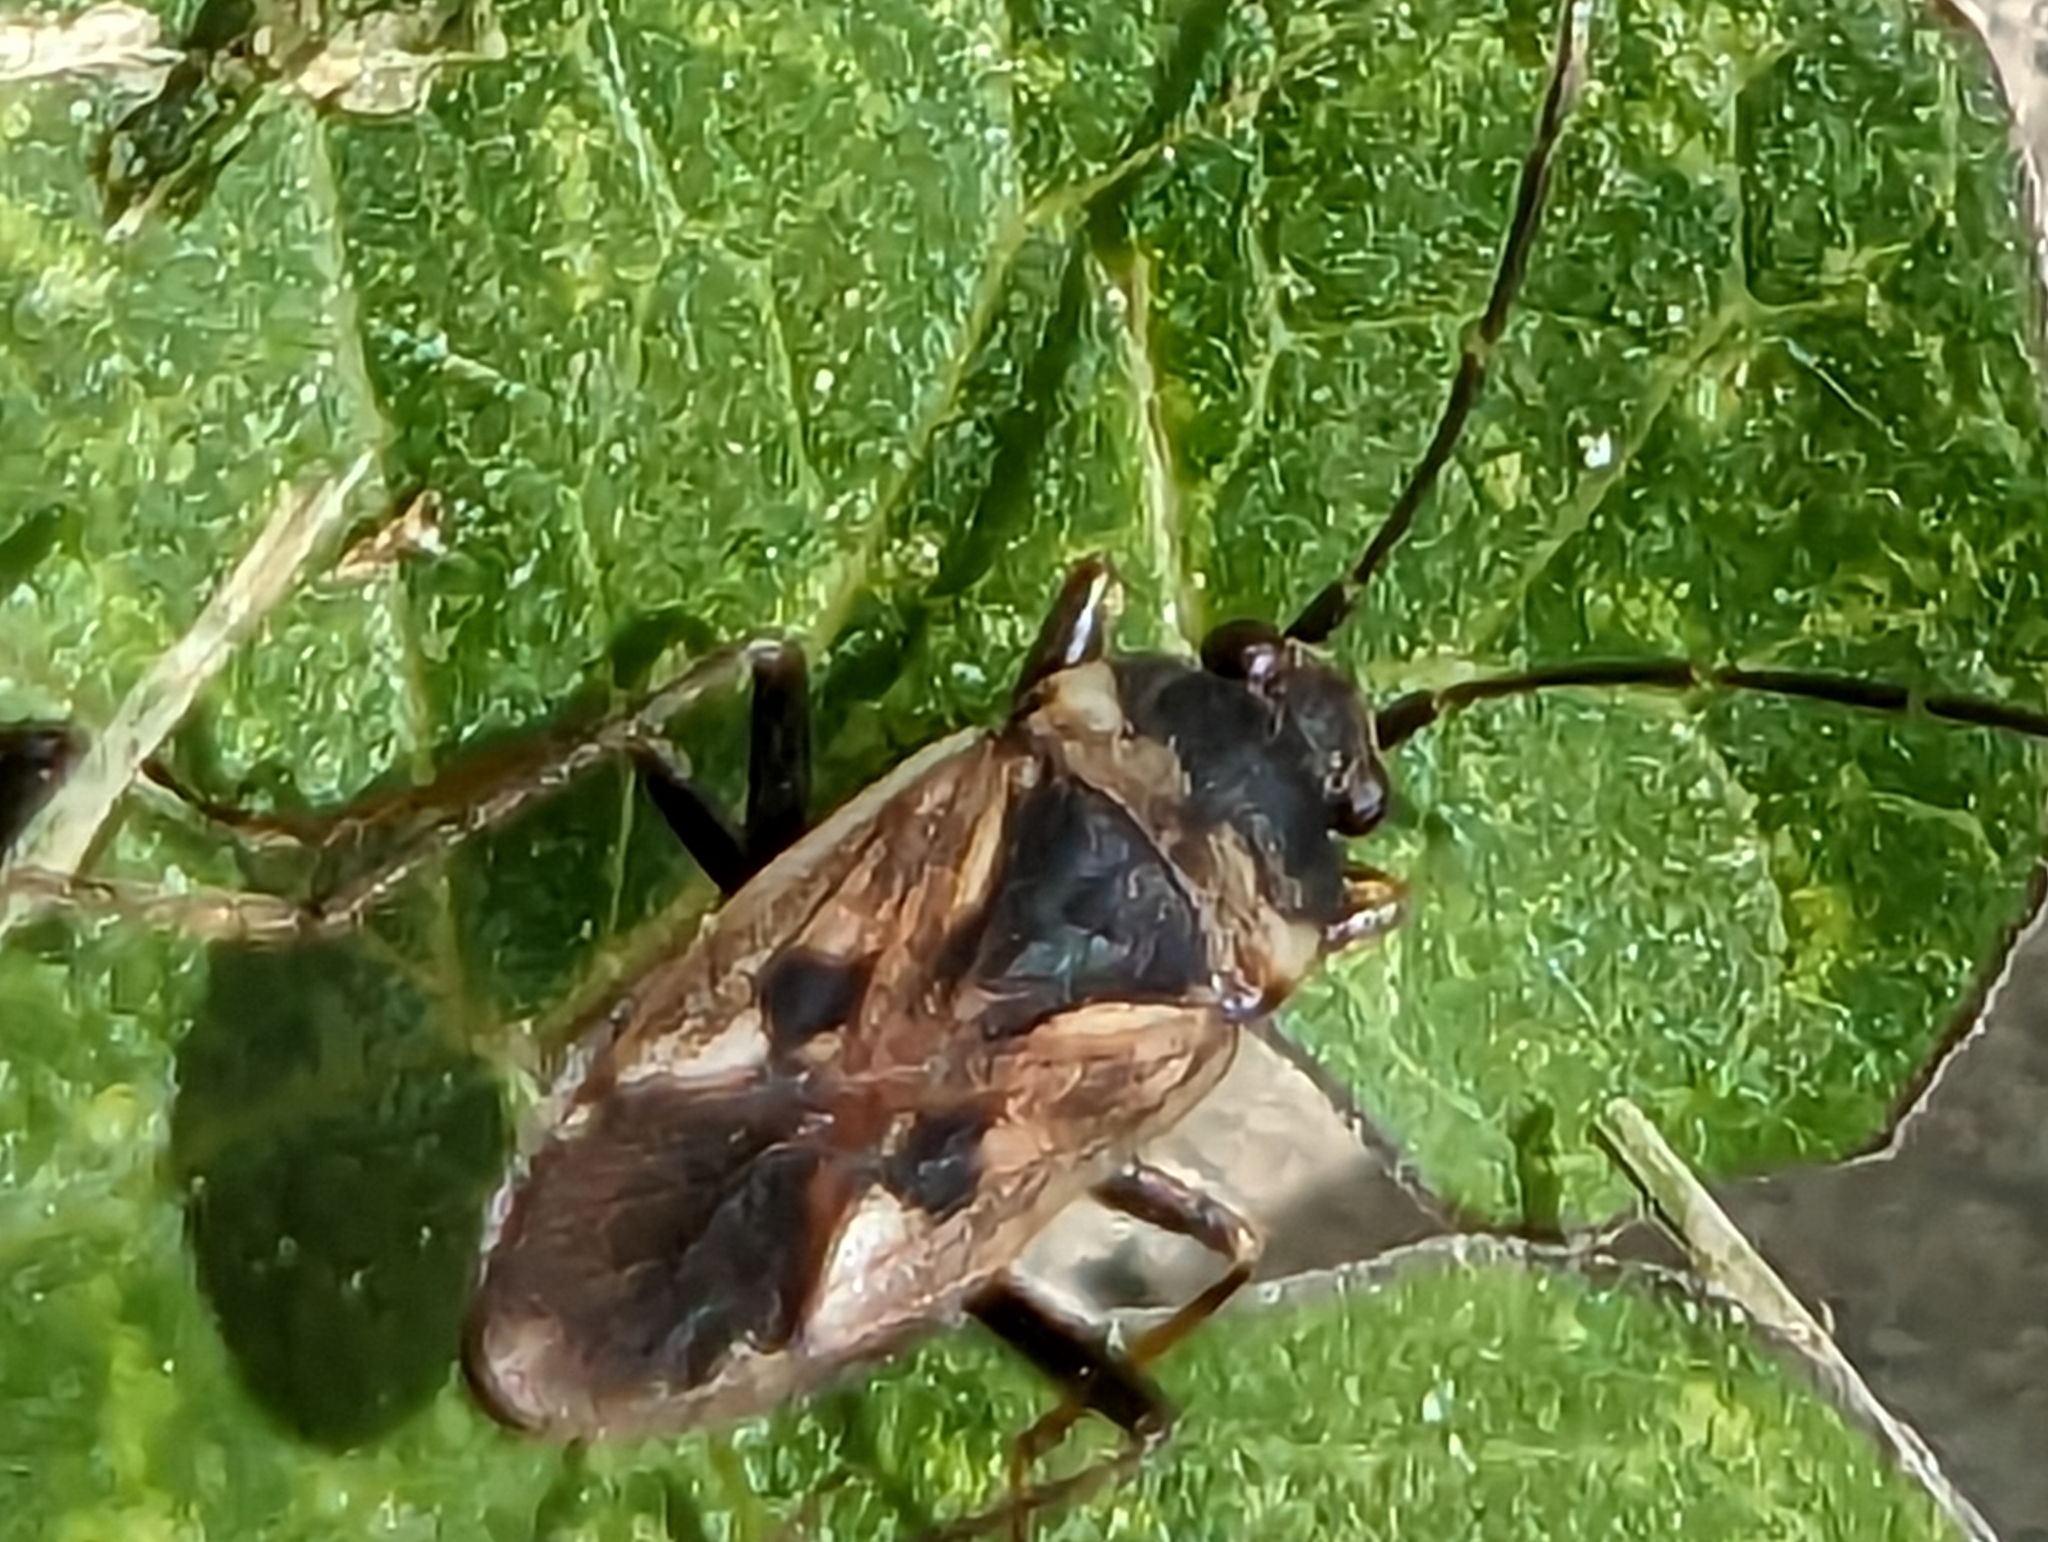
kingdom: Animalia
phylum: Arthropoda
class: Insecta
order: Hemiptera
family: Rhyparochromidae
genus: Rhyparochromus
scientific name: Rhyparochromus vulgaris
